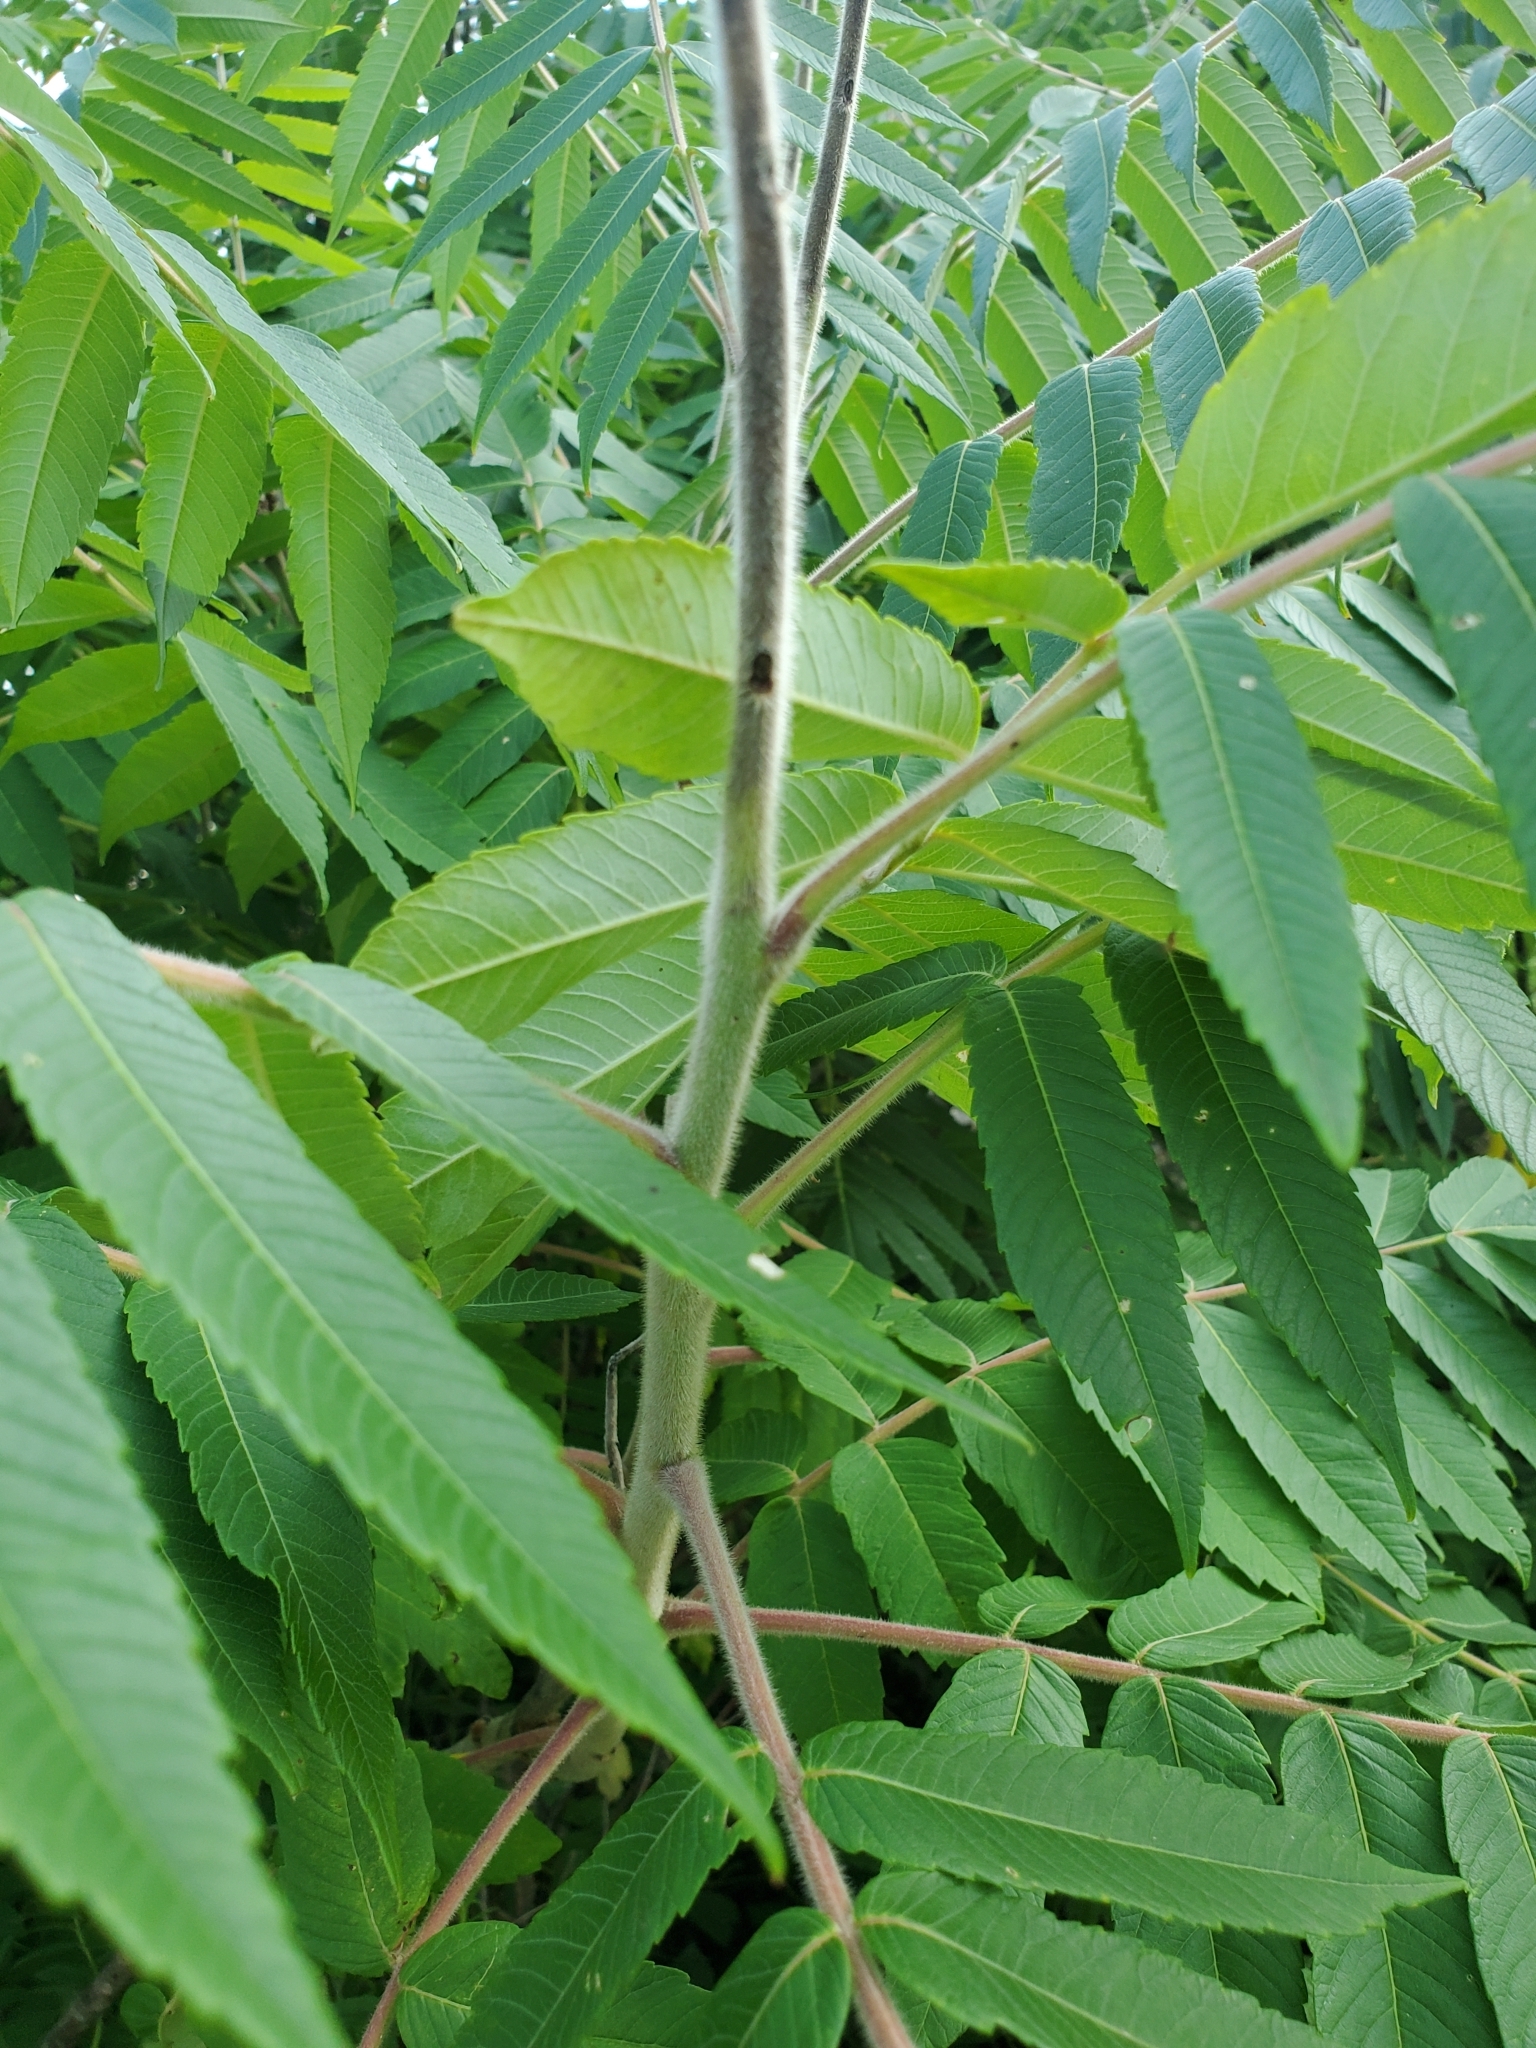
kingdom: Plantae
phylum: Tracheophyta
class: Magnoliopsida
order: Sapindales
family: Anacardiaceae
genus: Rhus
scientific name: Rhus typhina
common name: Staghorn sumac
